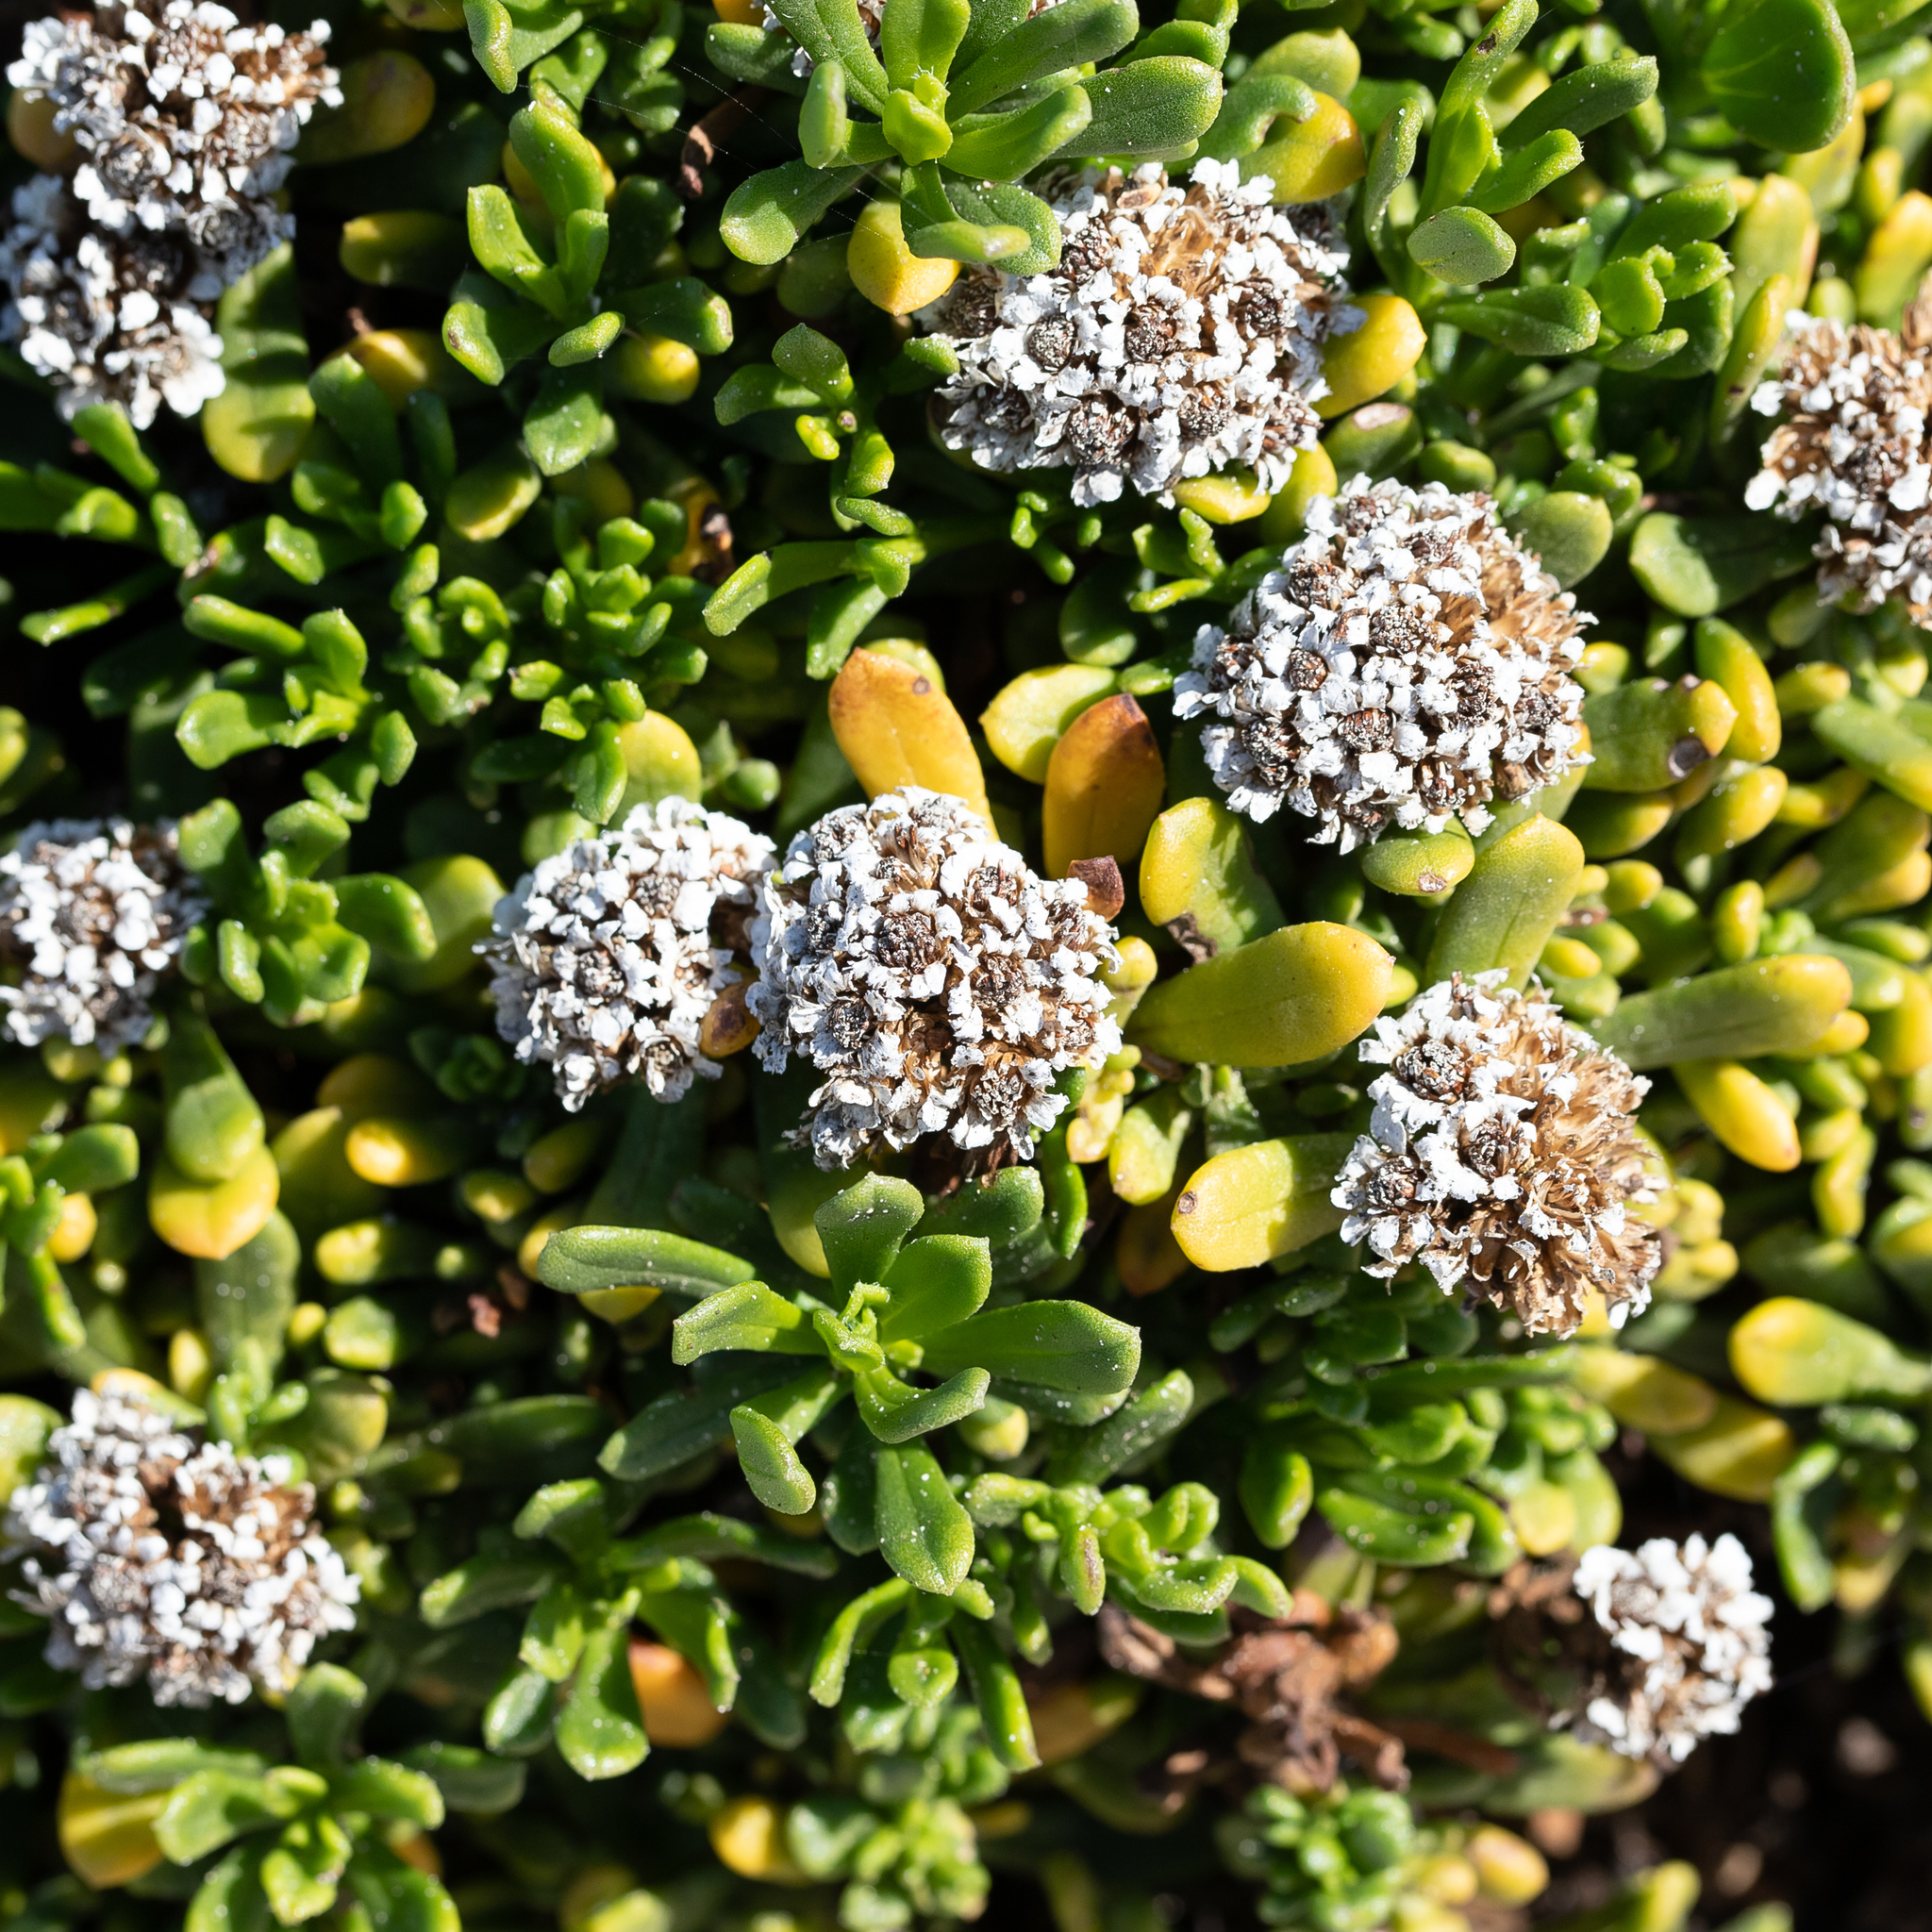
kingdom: Plantae
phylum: Tracheophyta
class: Magnoliopsida
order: Asterales
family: Asteraceae
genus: Ixodia
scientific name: Ixodia achillaeoides
